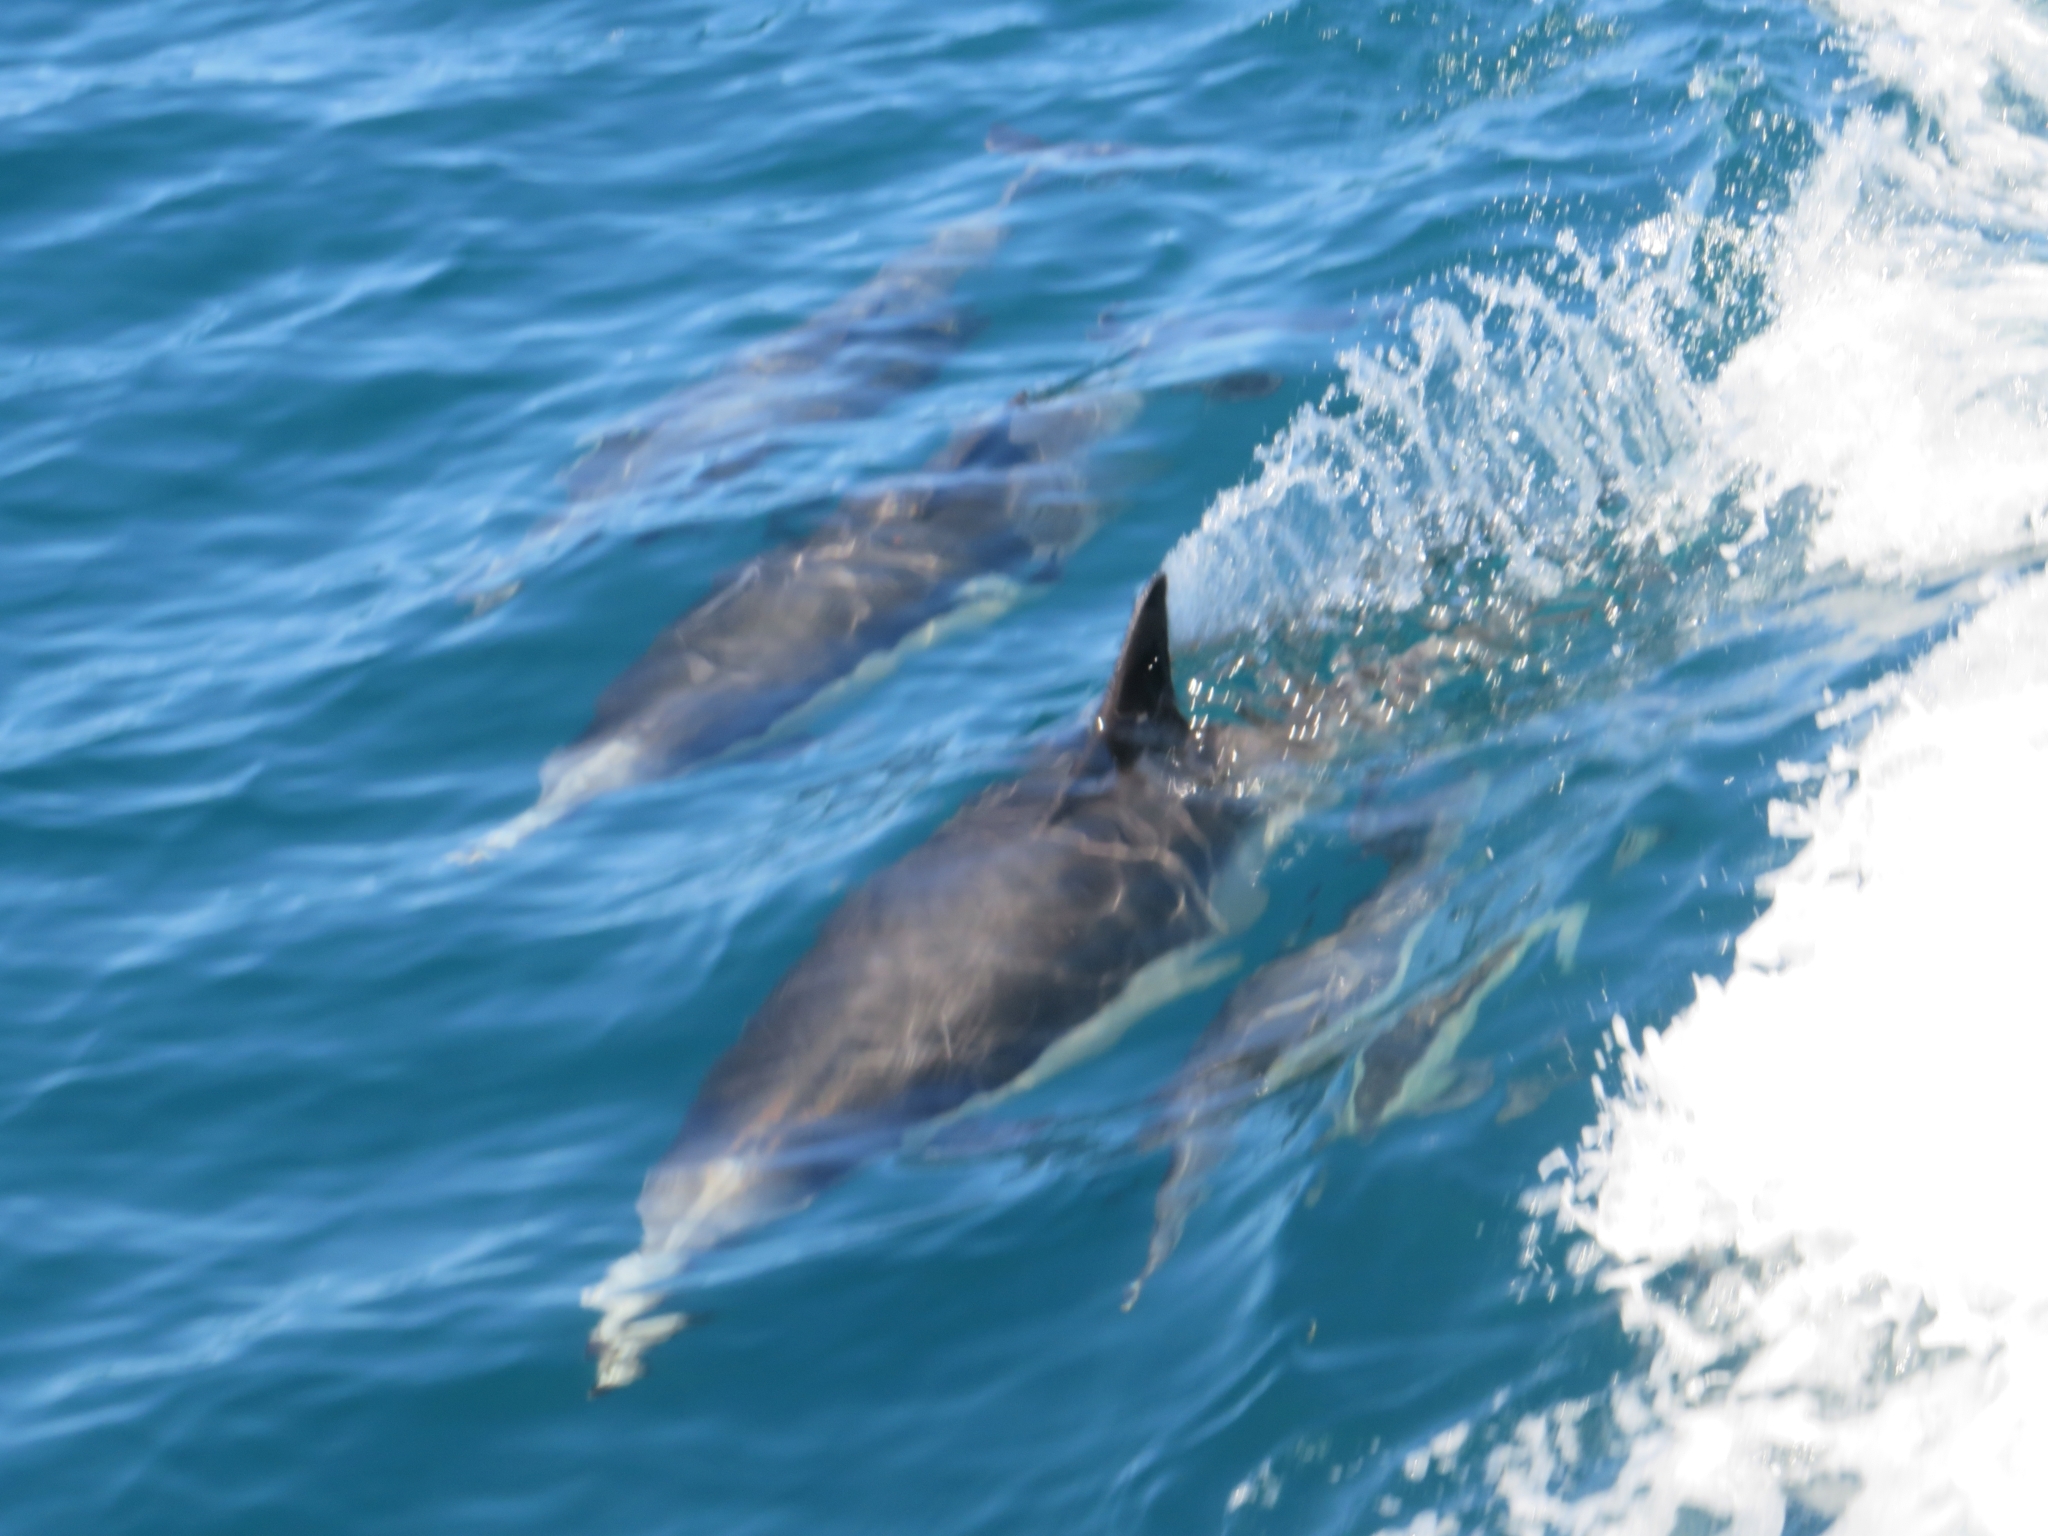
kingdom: Animalia
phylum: Chordata
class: Mammalia
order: Cetacea
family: Delphinidae
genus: Delphinus
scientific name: Delphinus delphis
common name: Common dolphin
